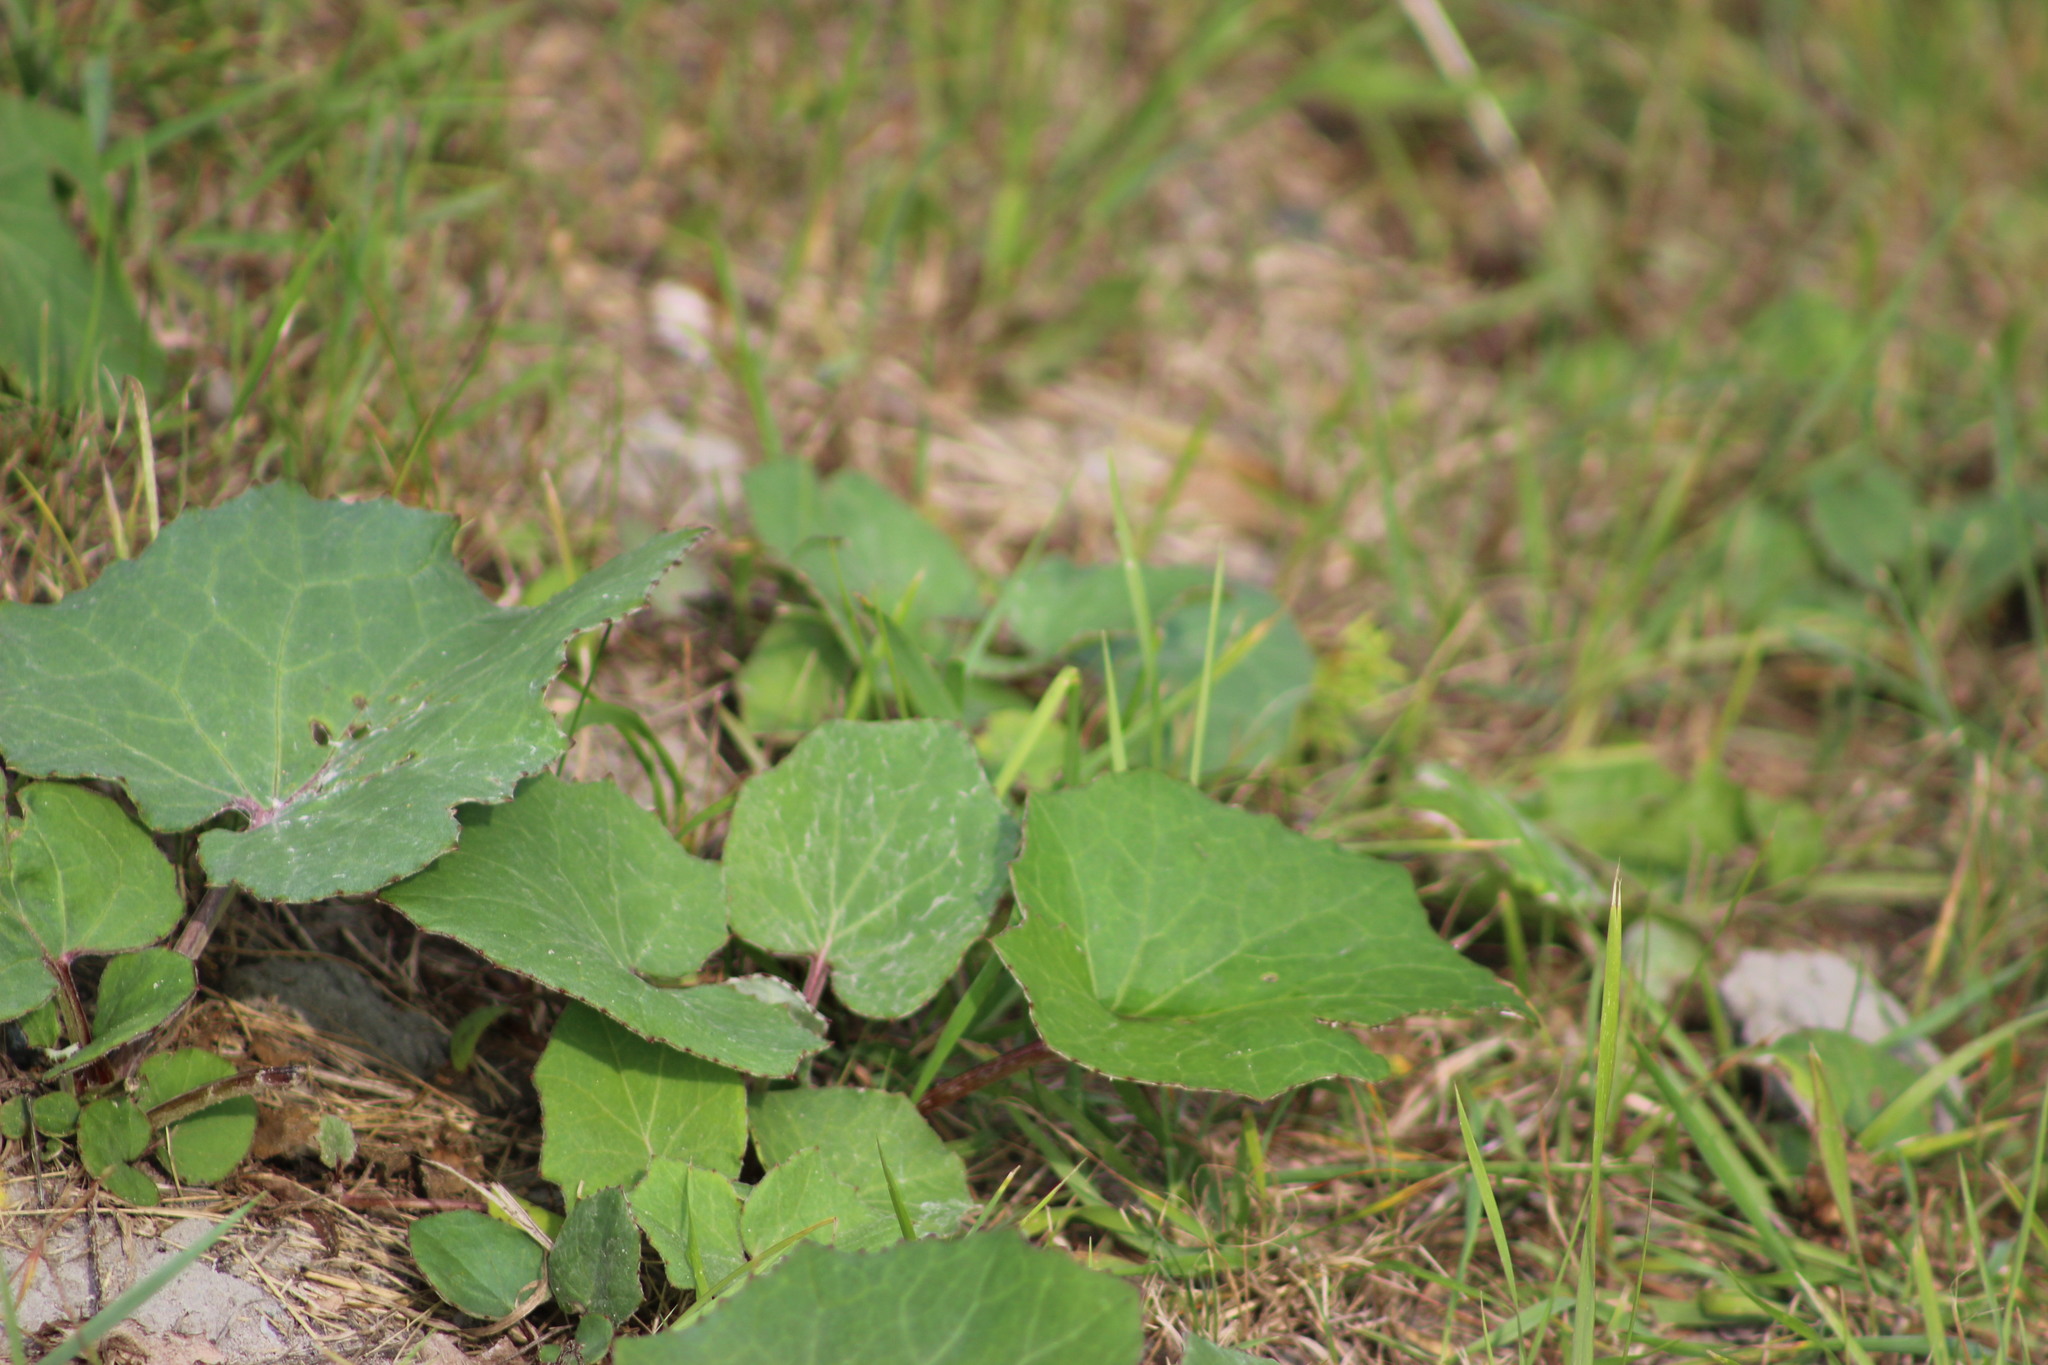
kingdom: Plantae
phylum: Tracheophyta
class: Magnoliopsida
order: Asterales
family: Asteraceae
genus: Tussilago
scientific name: Tussilago farfara
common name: Coltsfoot
